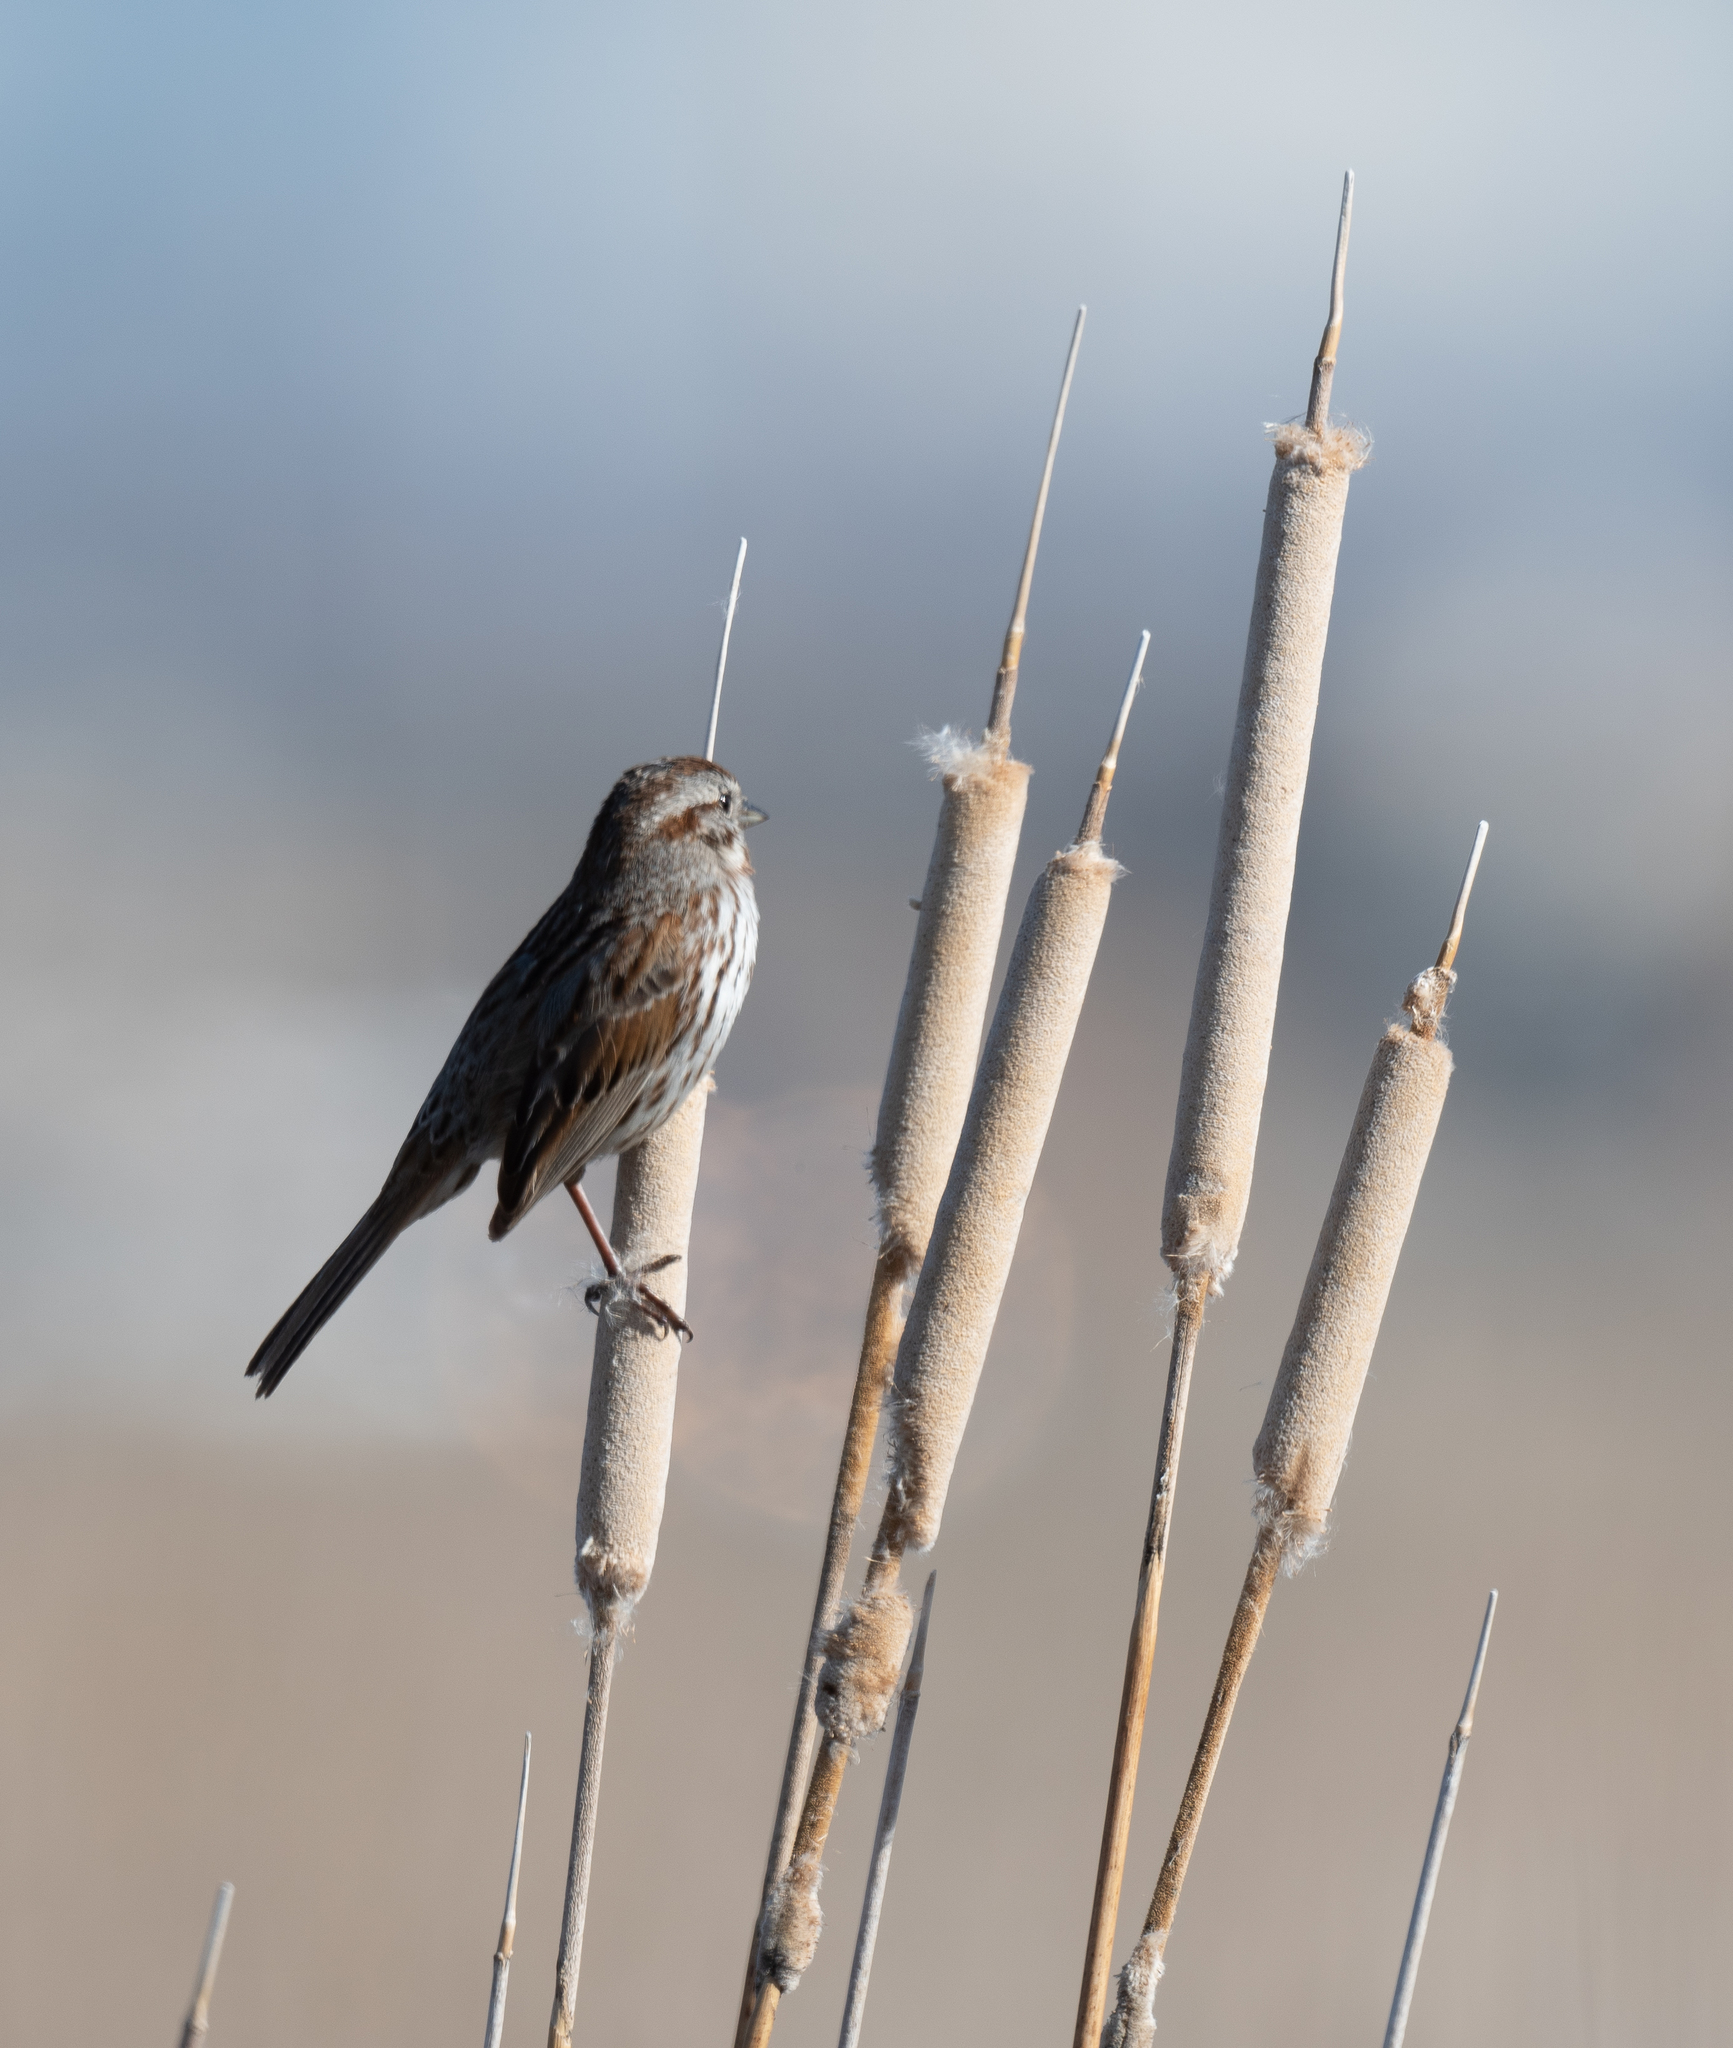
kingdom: Animalia
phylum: Chordata
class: Aves
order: Passeriformes
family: Passerellidae
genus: Melospiza
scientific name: Melospiza melodia
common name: Song sparrow
